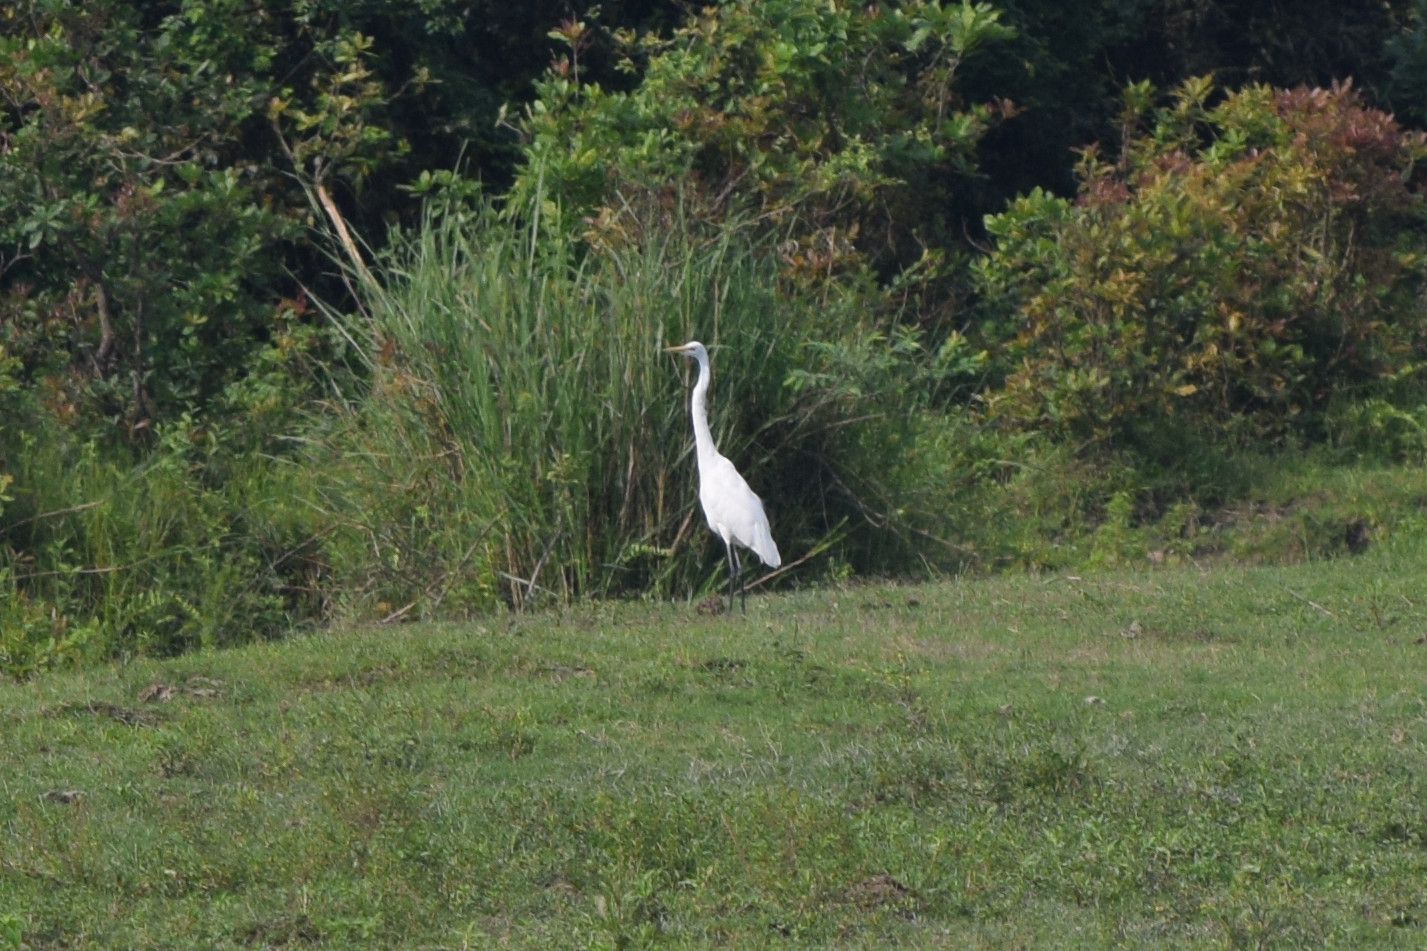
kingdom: Animalia
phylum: Chordata
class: Aves
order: Pelecaniformes
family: Ardeidae
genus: Ardea
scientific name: Ardea alba
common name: Great egret
